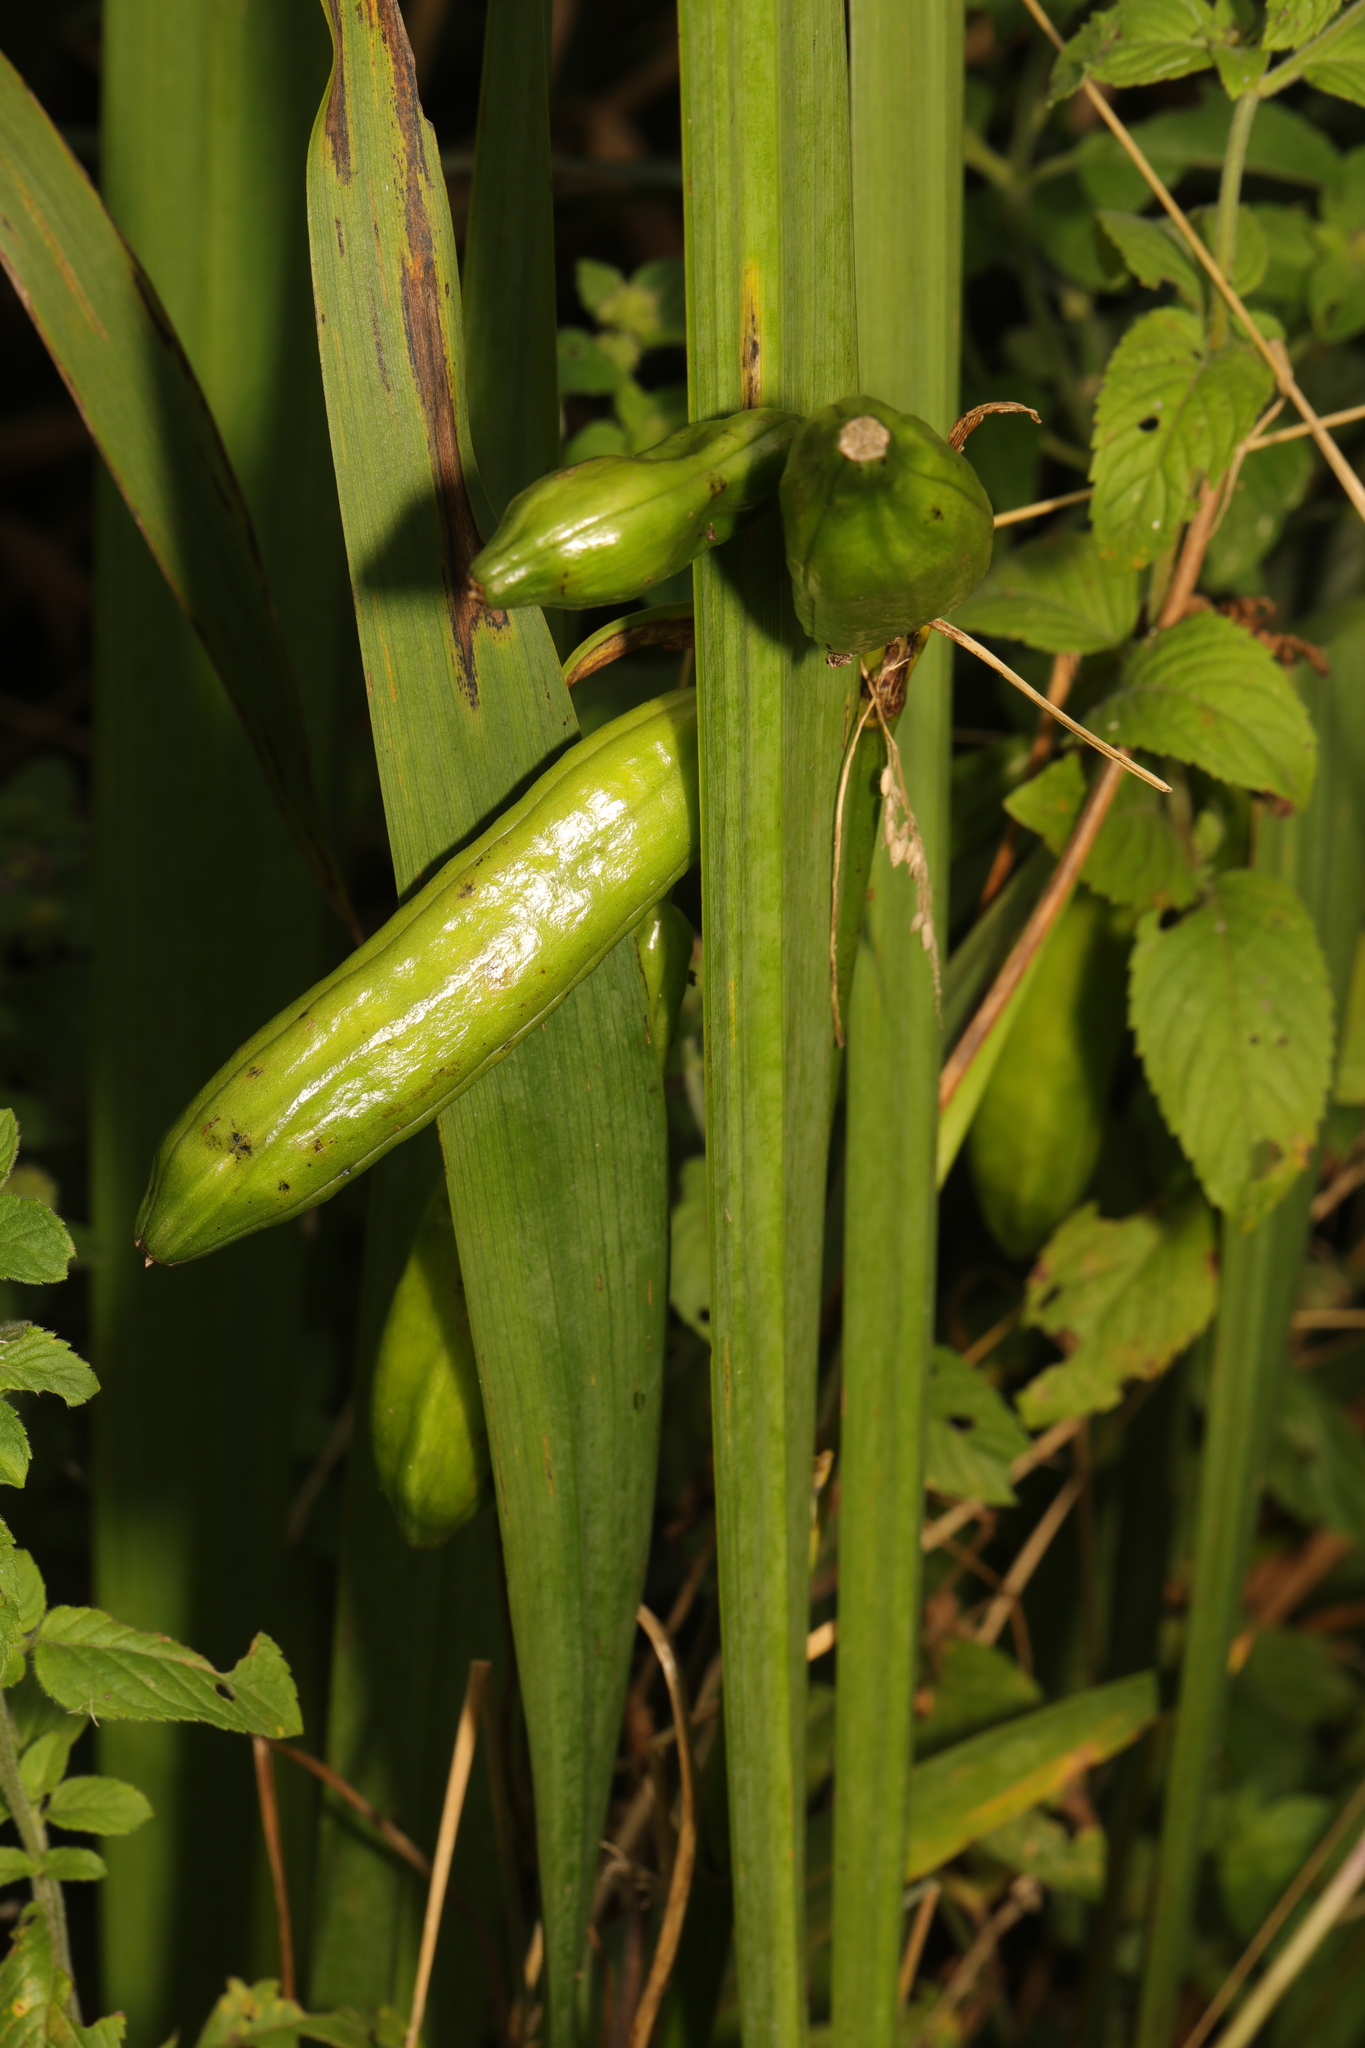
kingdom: Plantae
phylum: Tracheophyta
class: Liliopsida
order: Asparagales
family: Iridaceae
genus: Iris
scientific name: Iris pseudacorus
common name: Yellow flag
